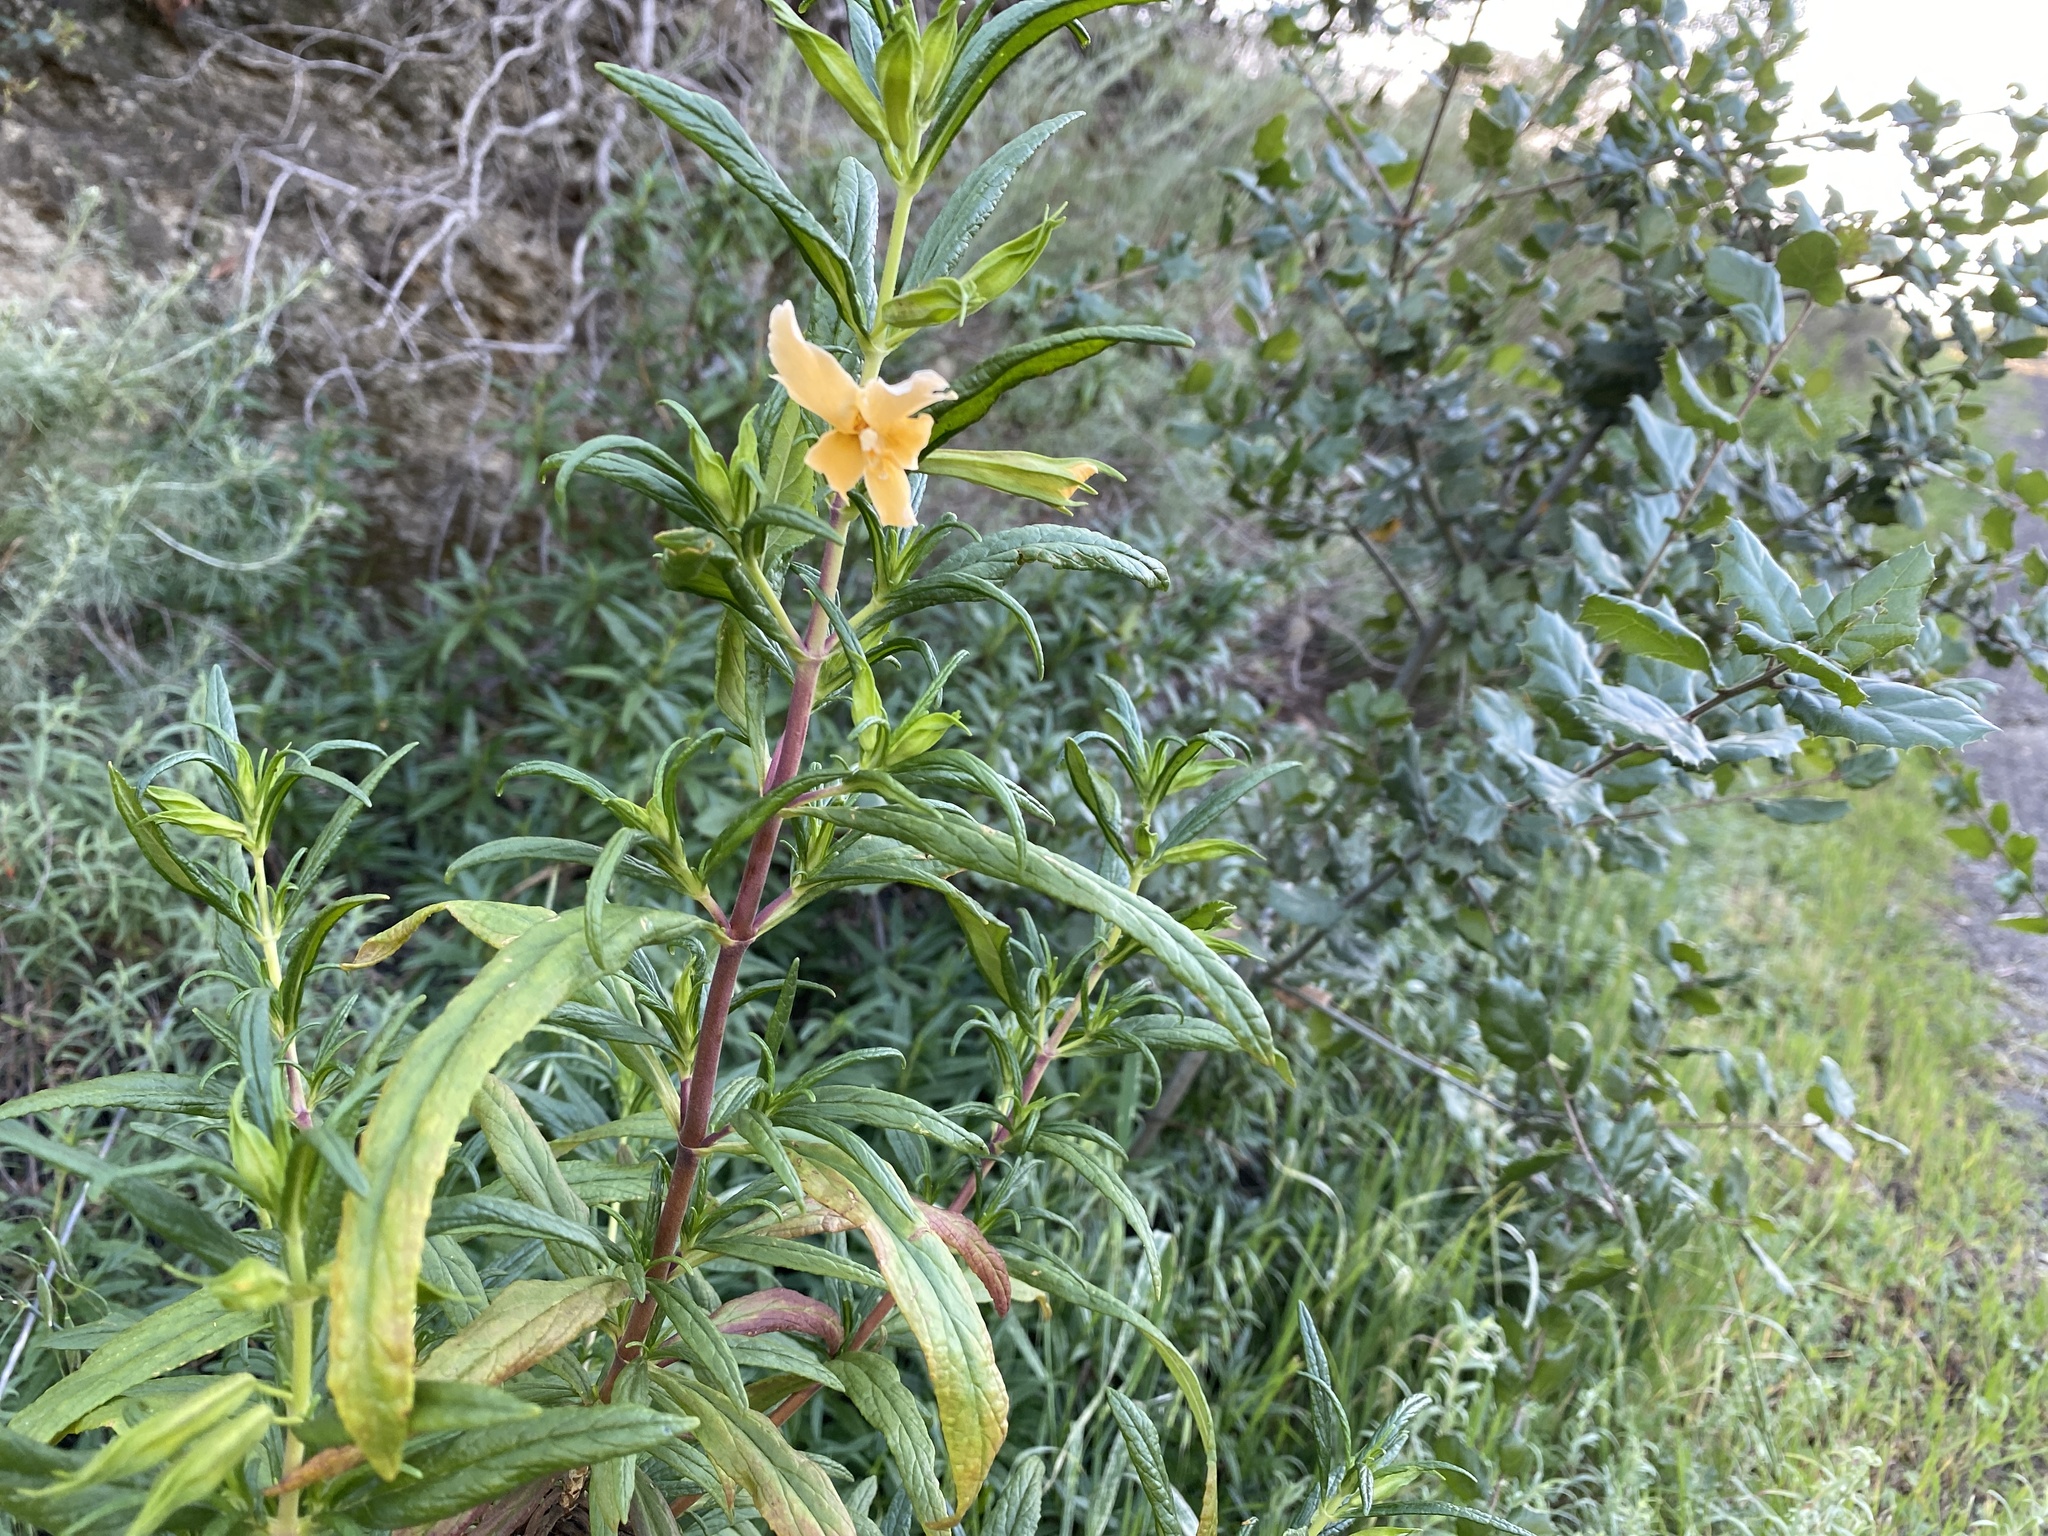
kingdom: Plantae
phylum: Tracheophyta
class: Magnoliopsida
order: Lamiales
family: Phrymaceae
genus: Diplacus
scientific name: Diplacus australis
